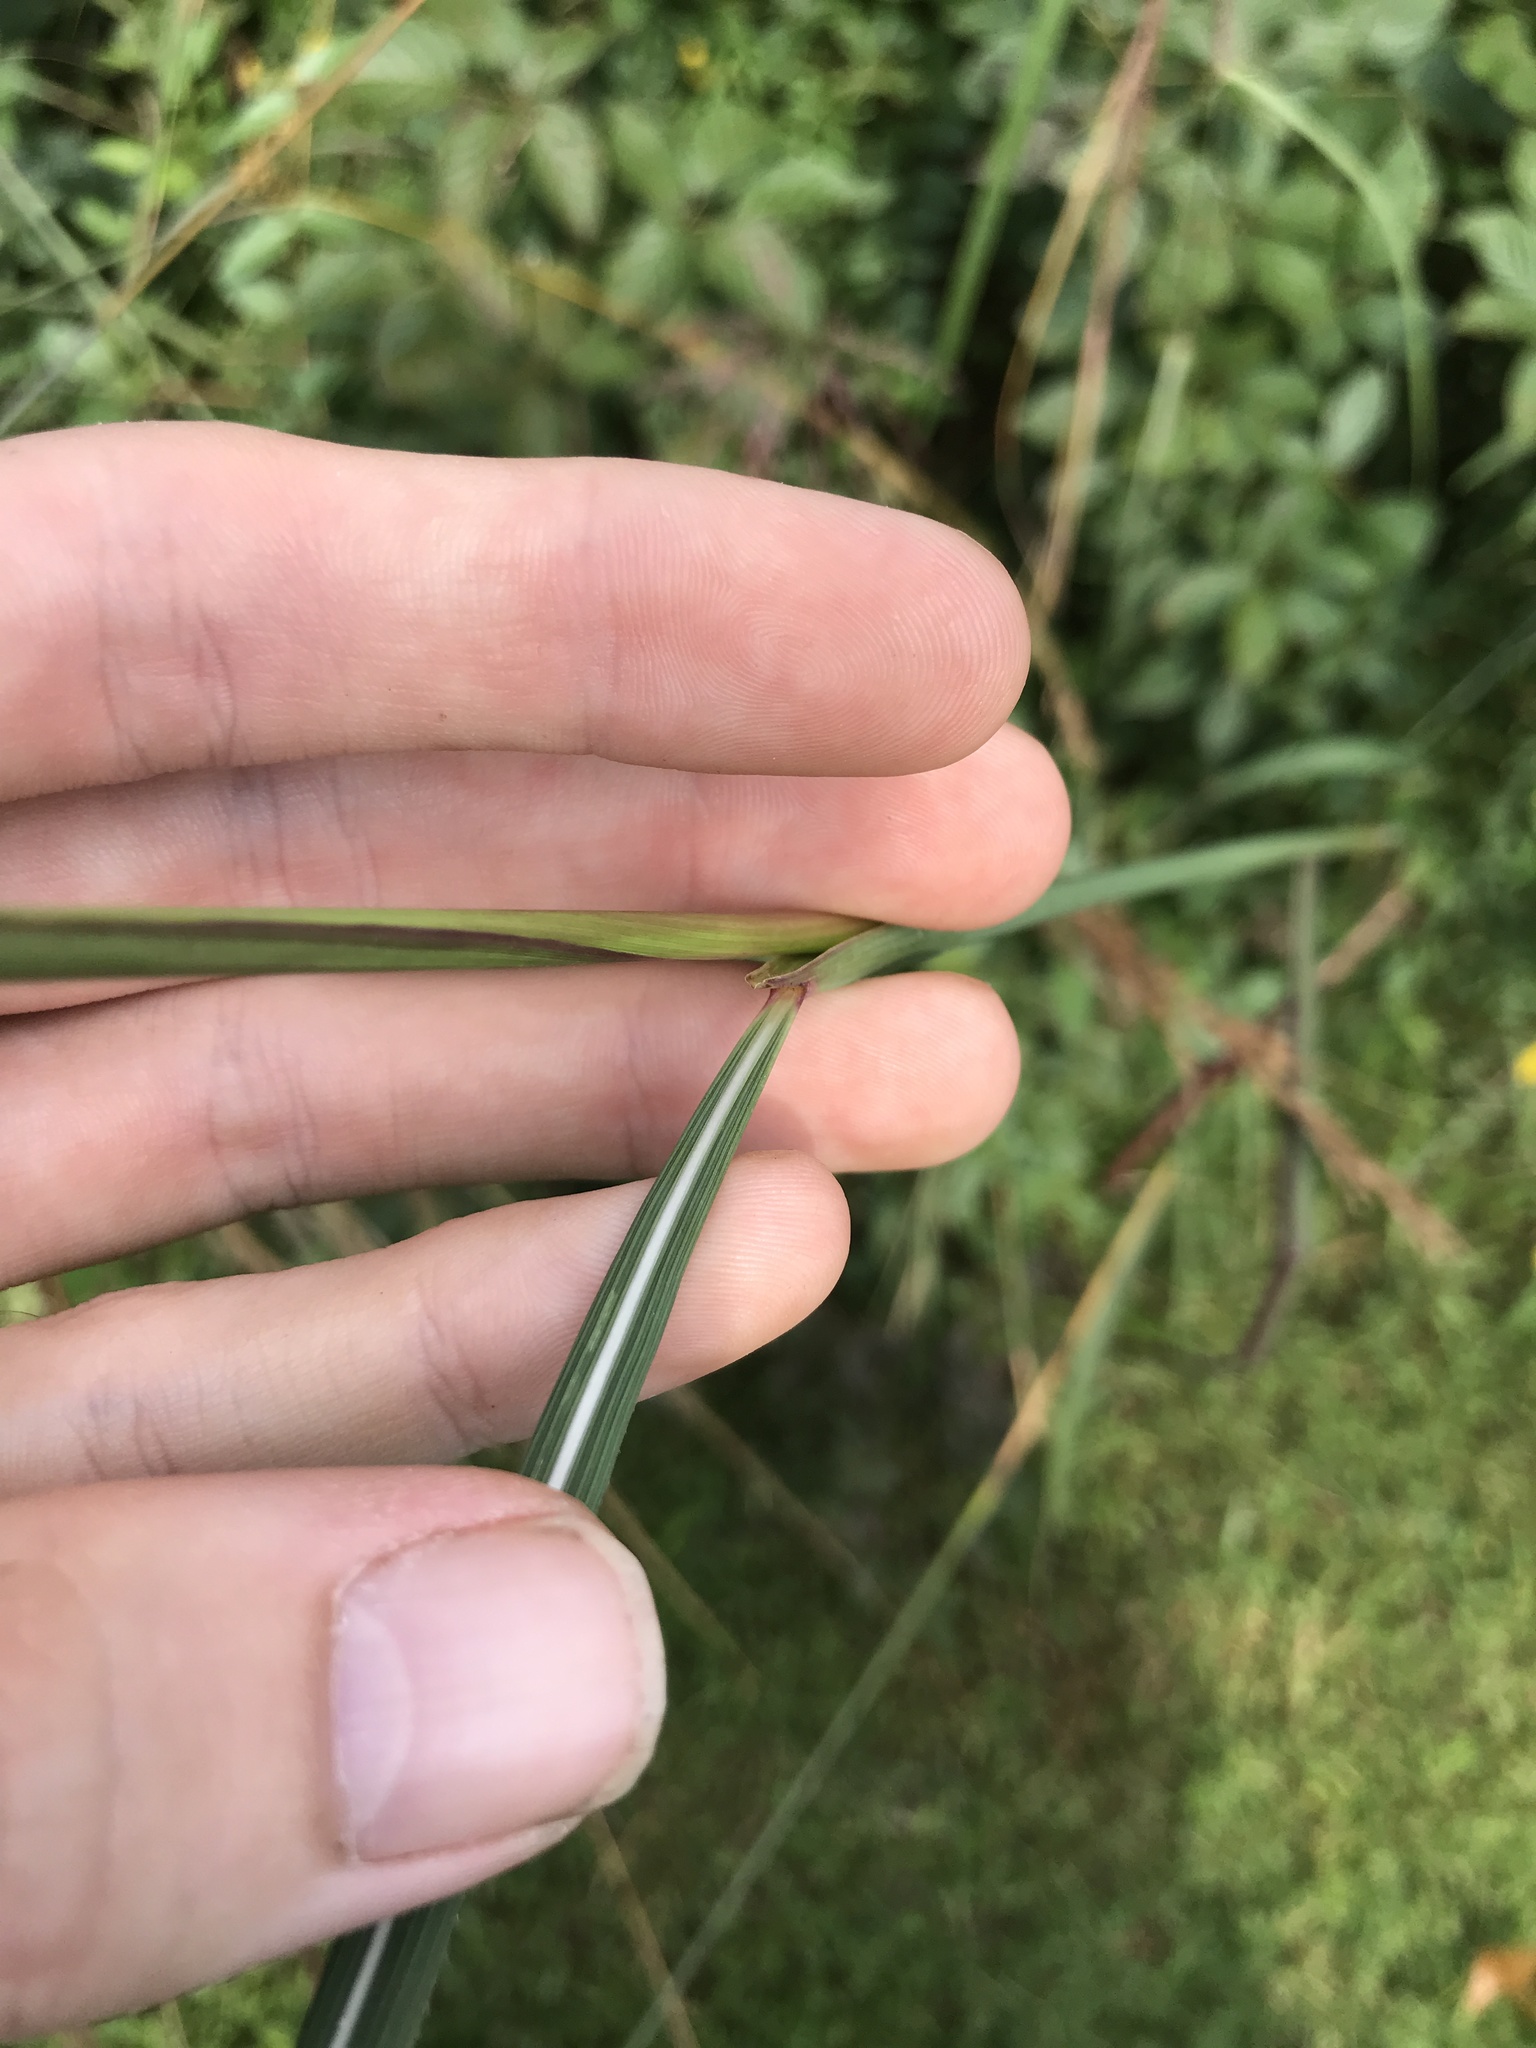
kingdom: Plantae
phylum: Tracheophyta
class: Liliopsida
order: Poales
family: Poaceae
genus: Sorghastrum
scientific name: Sorghastrum nutans
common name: Indian grass
